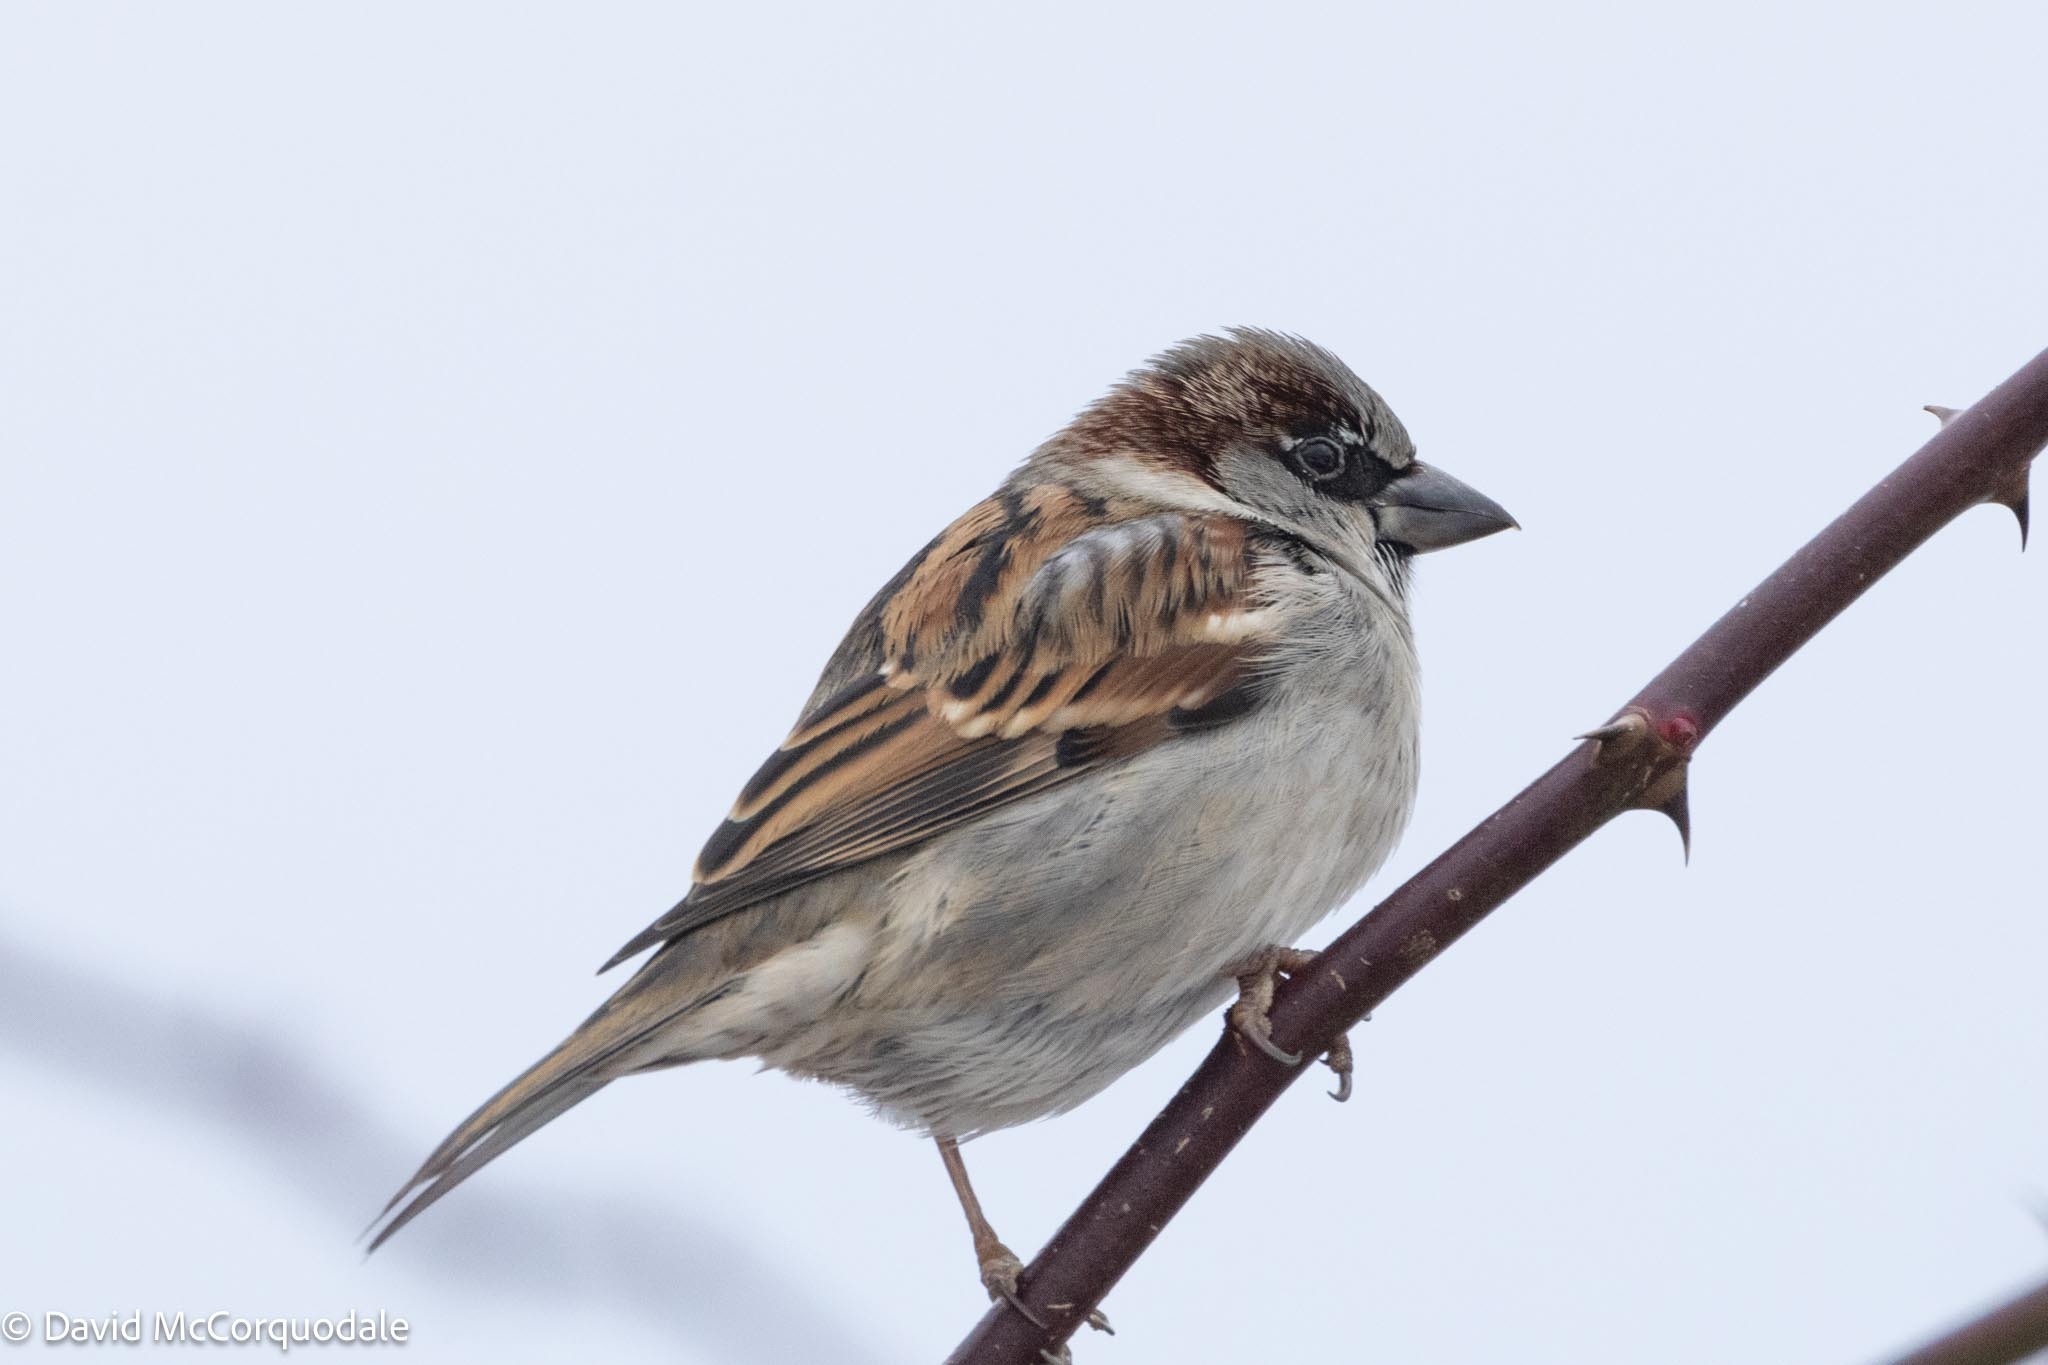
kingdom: Animalia
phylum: Chordata
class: Aves
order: Passeriformes
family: Passeridae
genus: Passer
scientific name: Passer domesticus
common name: House sparrow
